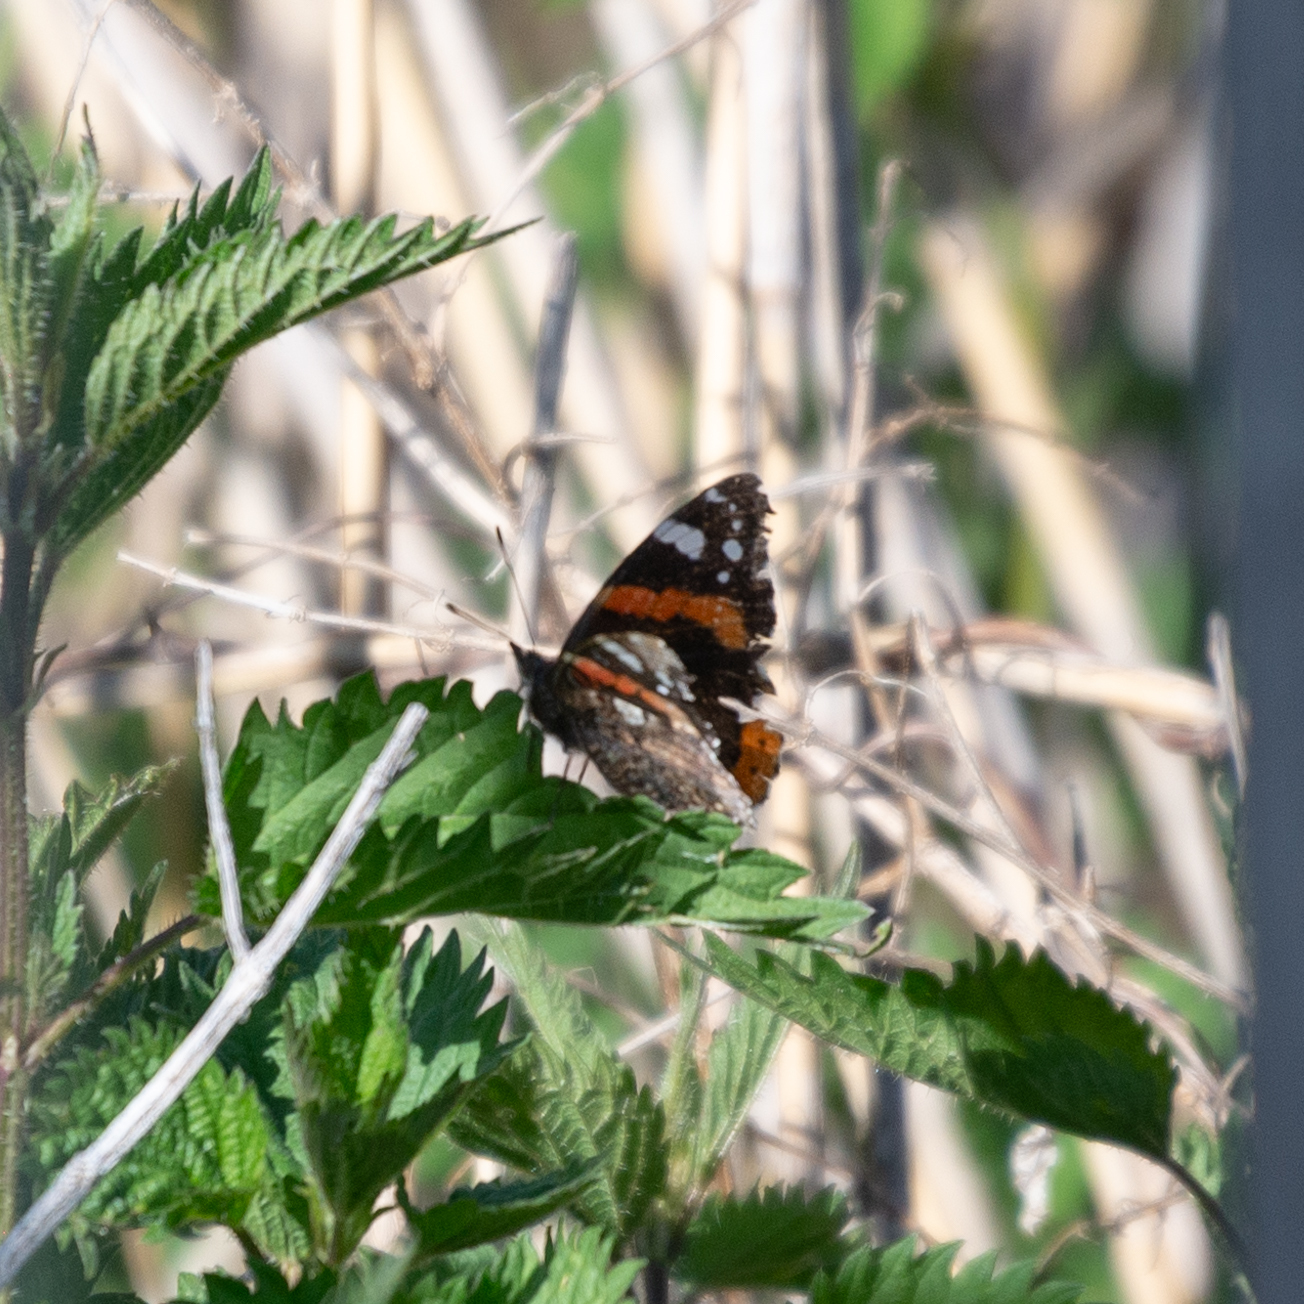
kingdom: Animalia
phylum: Arthropoda
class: Insecta
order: Lepidoptera
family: Nymphalidae
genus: Vanessa
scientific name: Vanessa atalanta
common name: Red admiral
